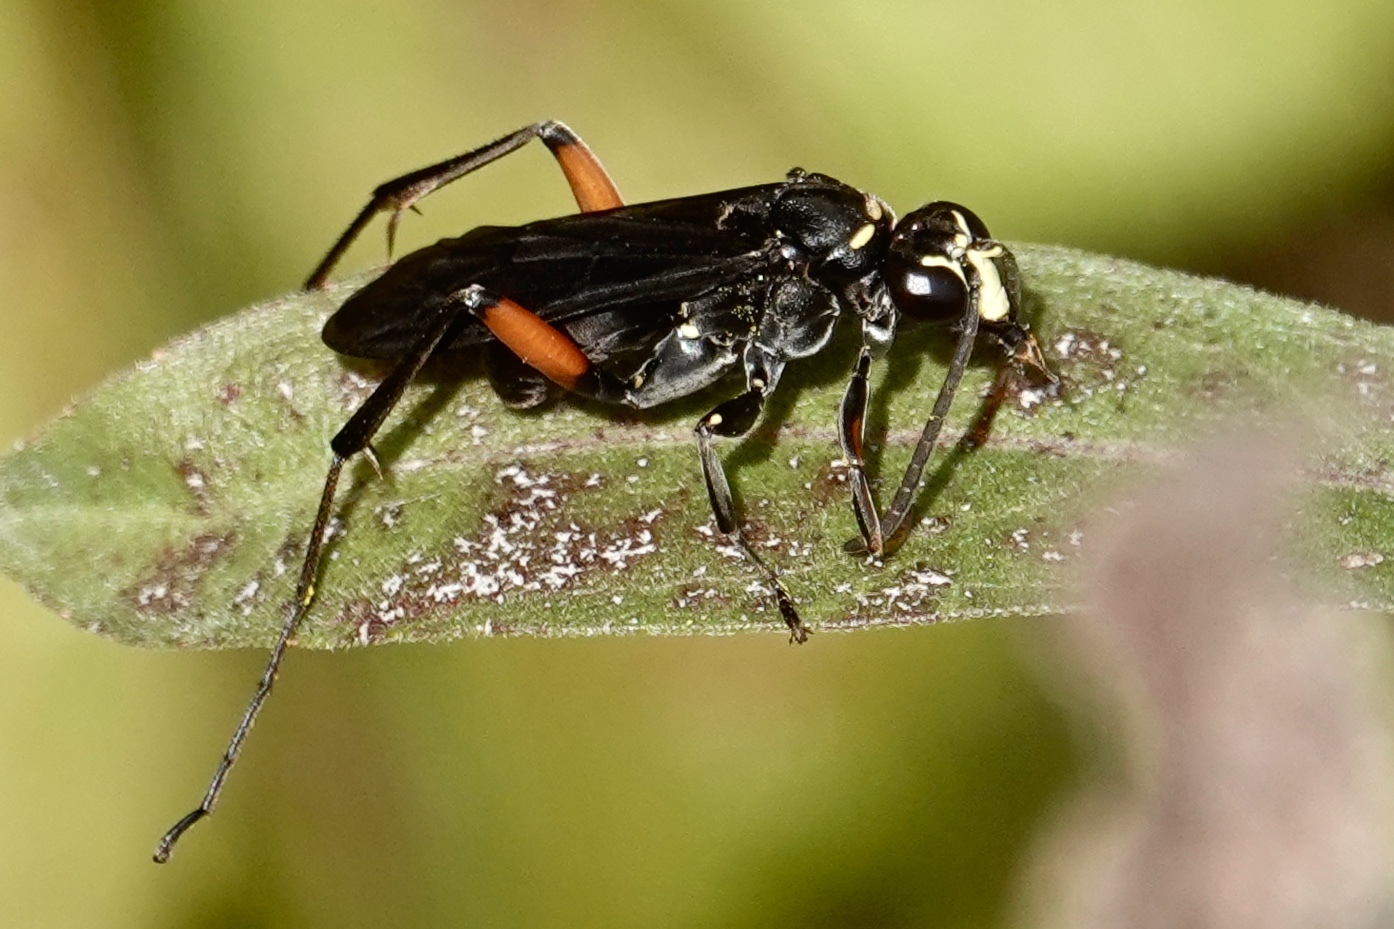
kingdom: Animalia
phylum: Arthropoda
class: Insecta
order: Hymenoptera
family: Pompilidae
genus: Ceropales
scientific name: Ceropales bipunctata
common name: Two-speckled cuckoo spider wasp
